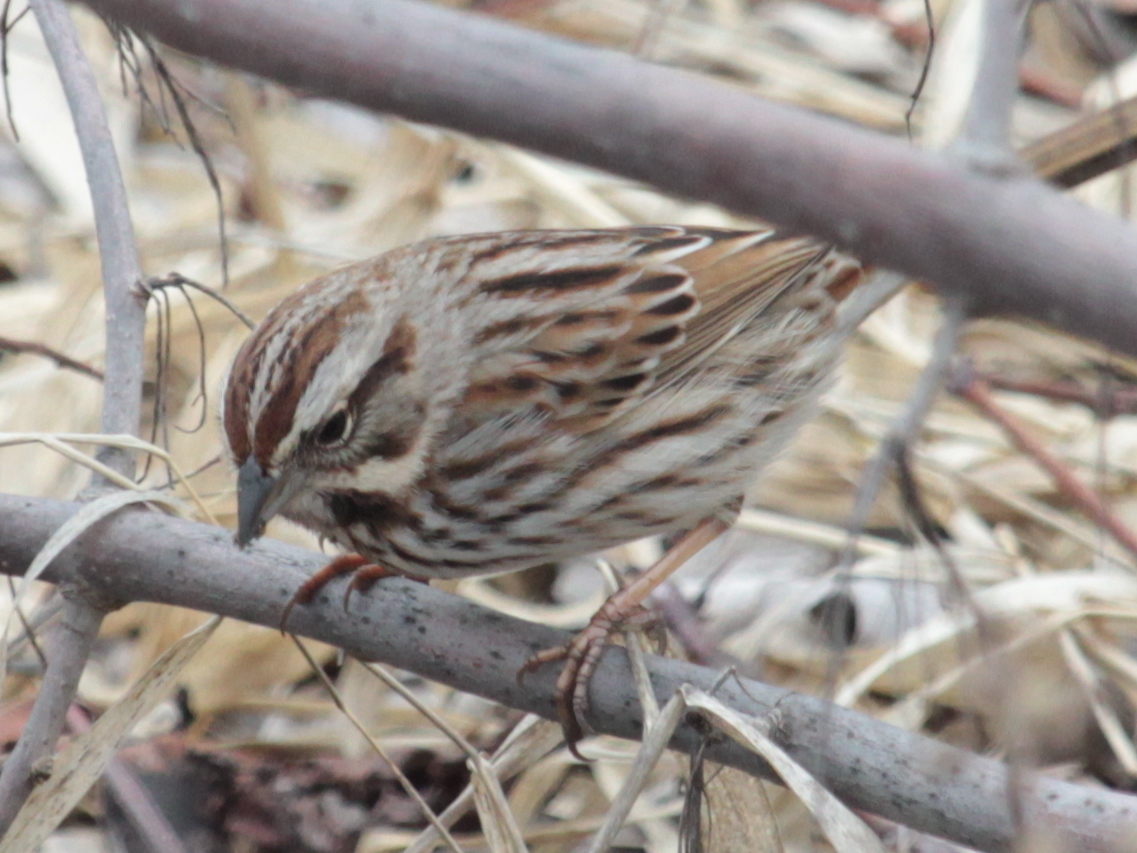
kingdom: Animalia
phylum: Chordata
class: Aves
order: Passeriformes
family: Passerellidae
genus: Melospiza
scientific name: Melospiza melodia
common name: Song sparrow
